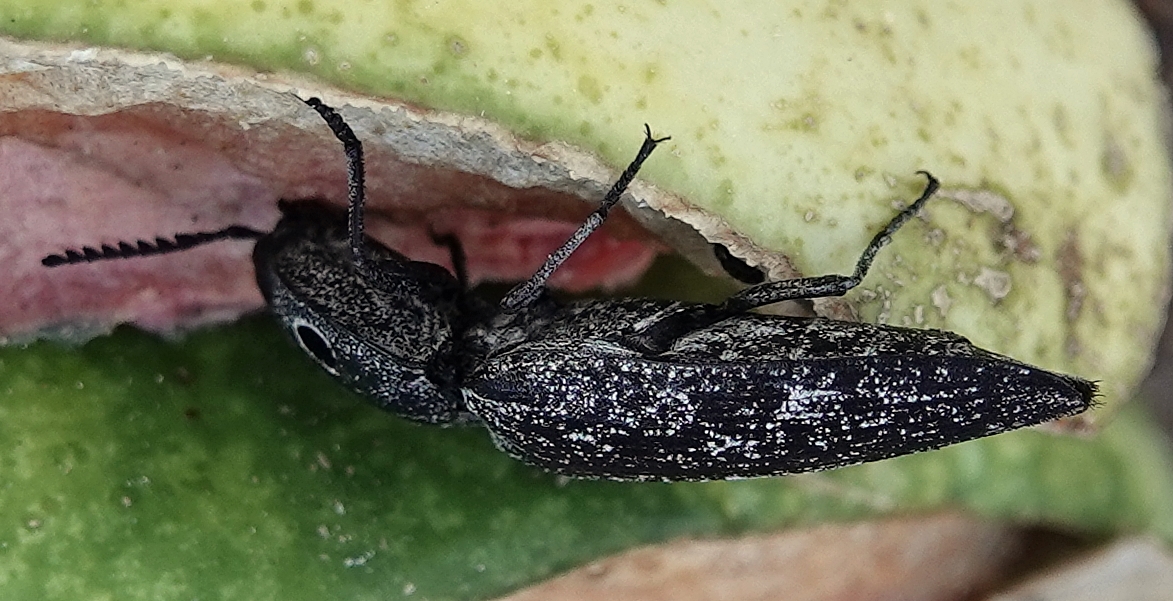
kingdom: Animalia
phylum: Arthropoda
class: Insecta
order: Coleoptera
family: Elateridae
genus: Alaus
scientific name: Alaus oculatus
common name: Eastern eyed click beetle
